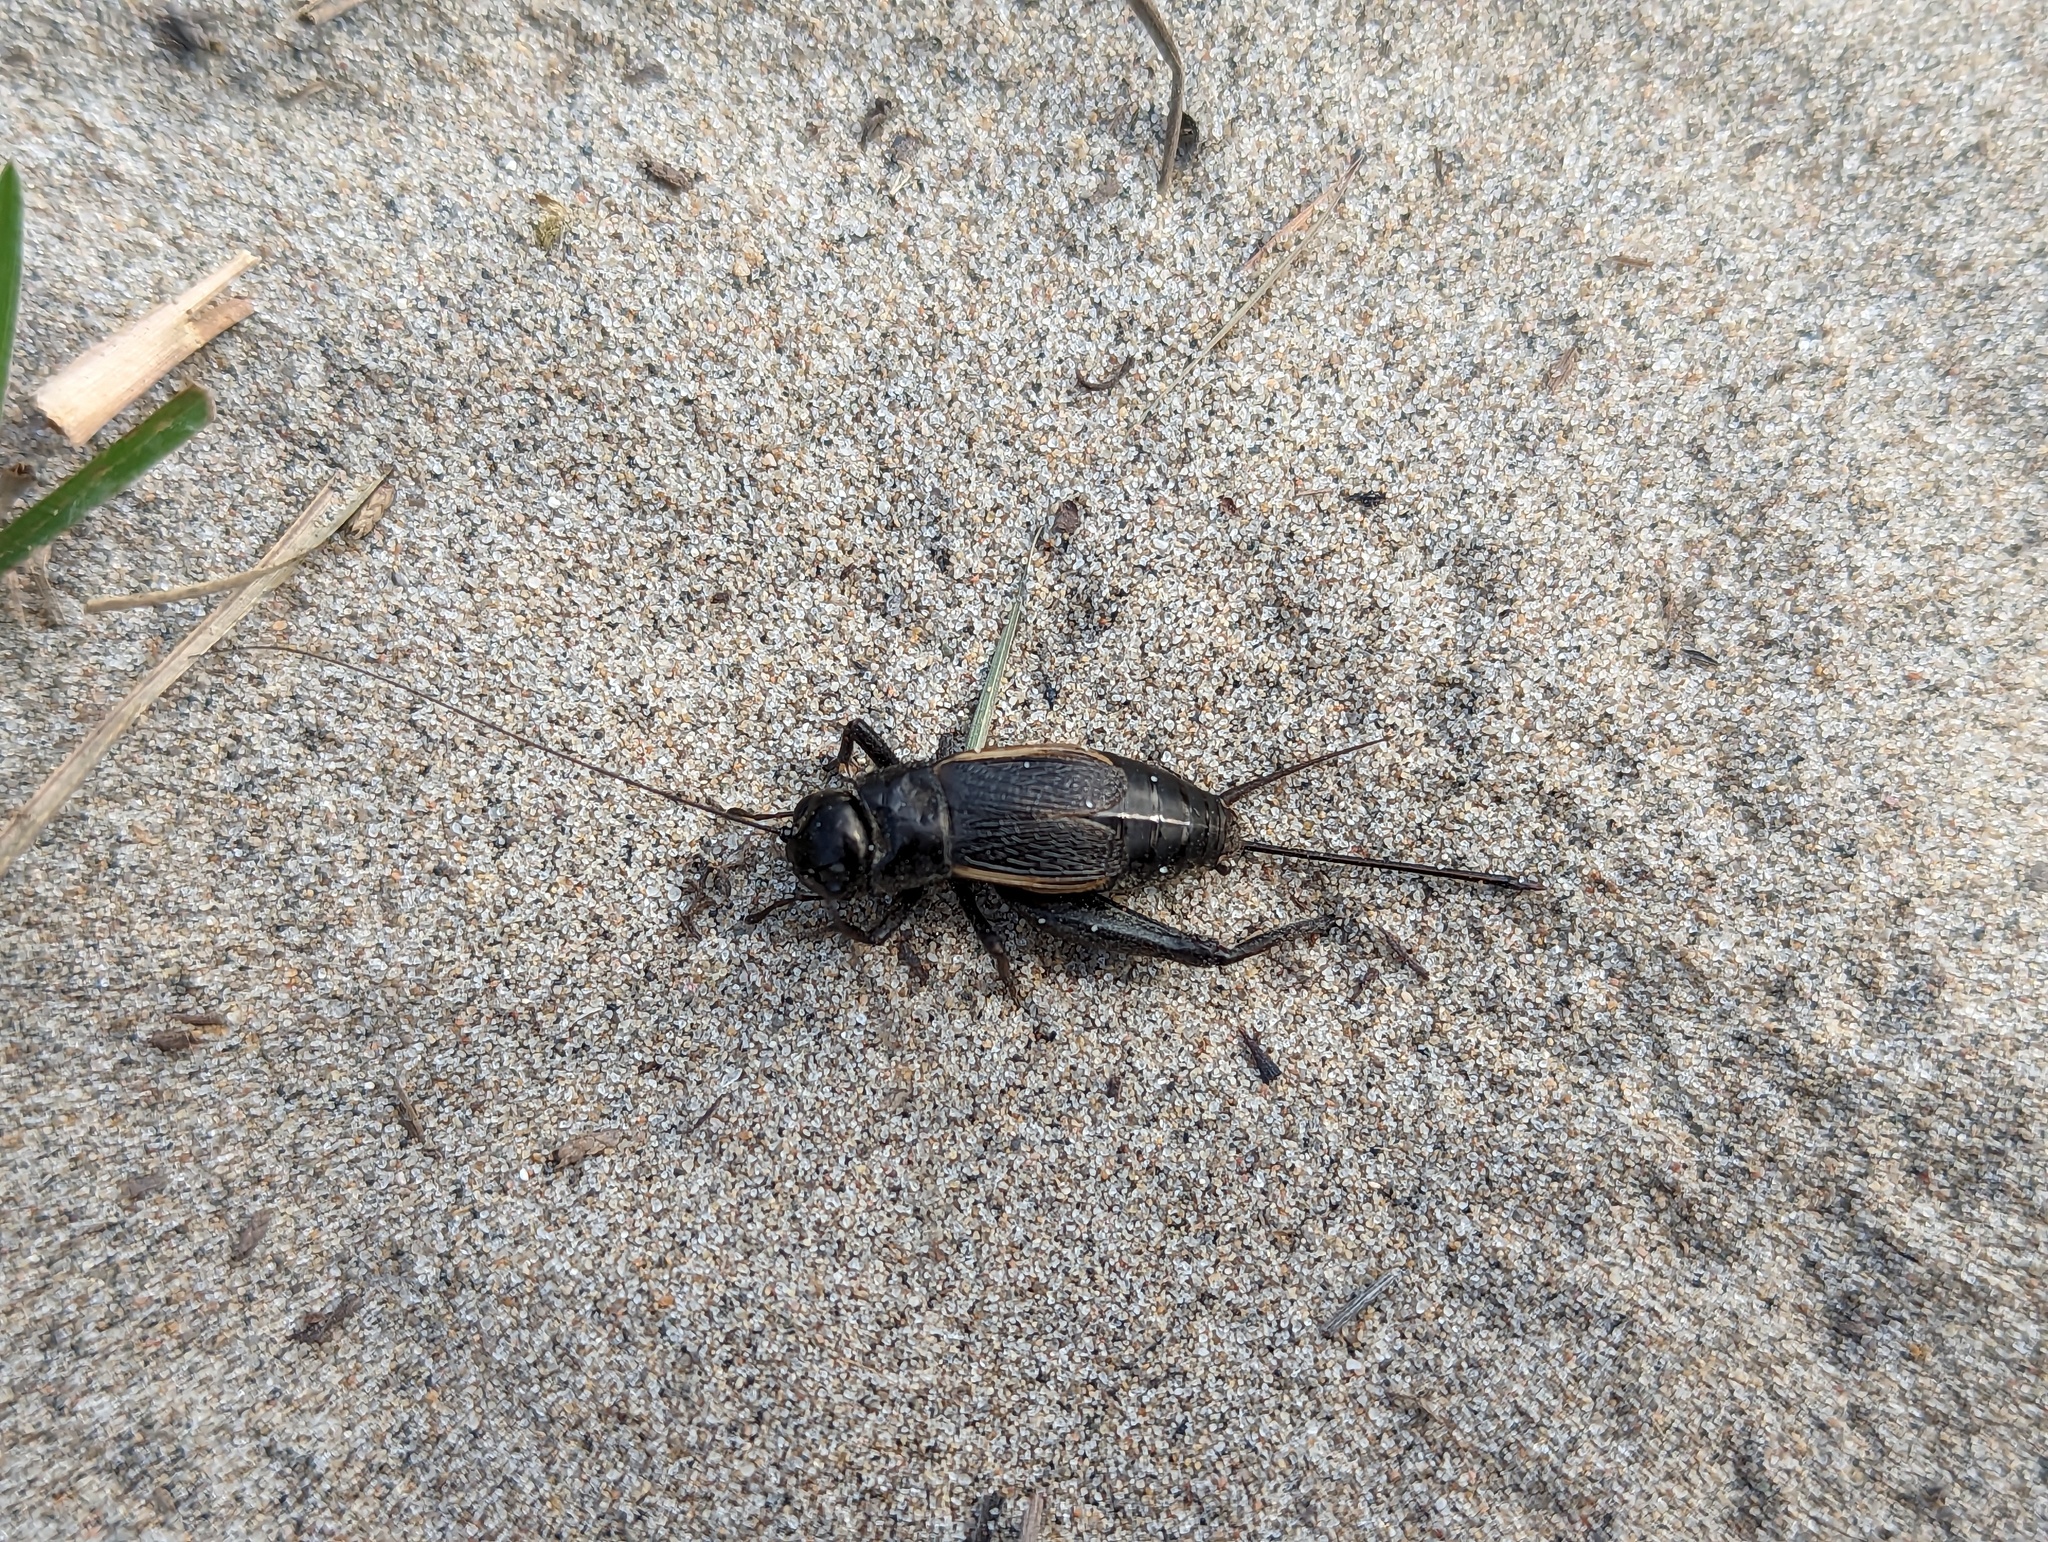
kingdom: Animalia
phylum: Arthropoda
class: Insecta
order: Orthoptera
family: Gryllidae
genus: Gryllus
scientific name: Gryllus pennsylvanicus
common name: Fall field cricket
